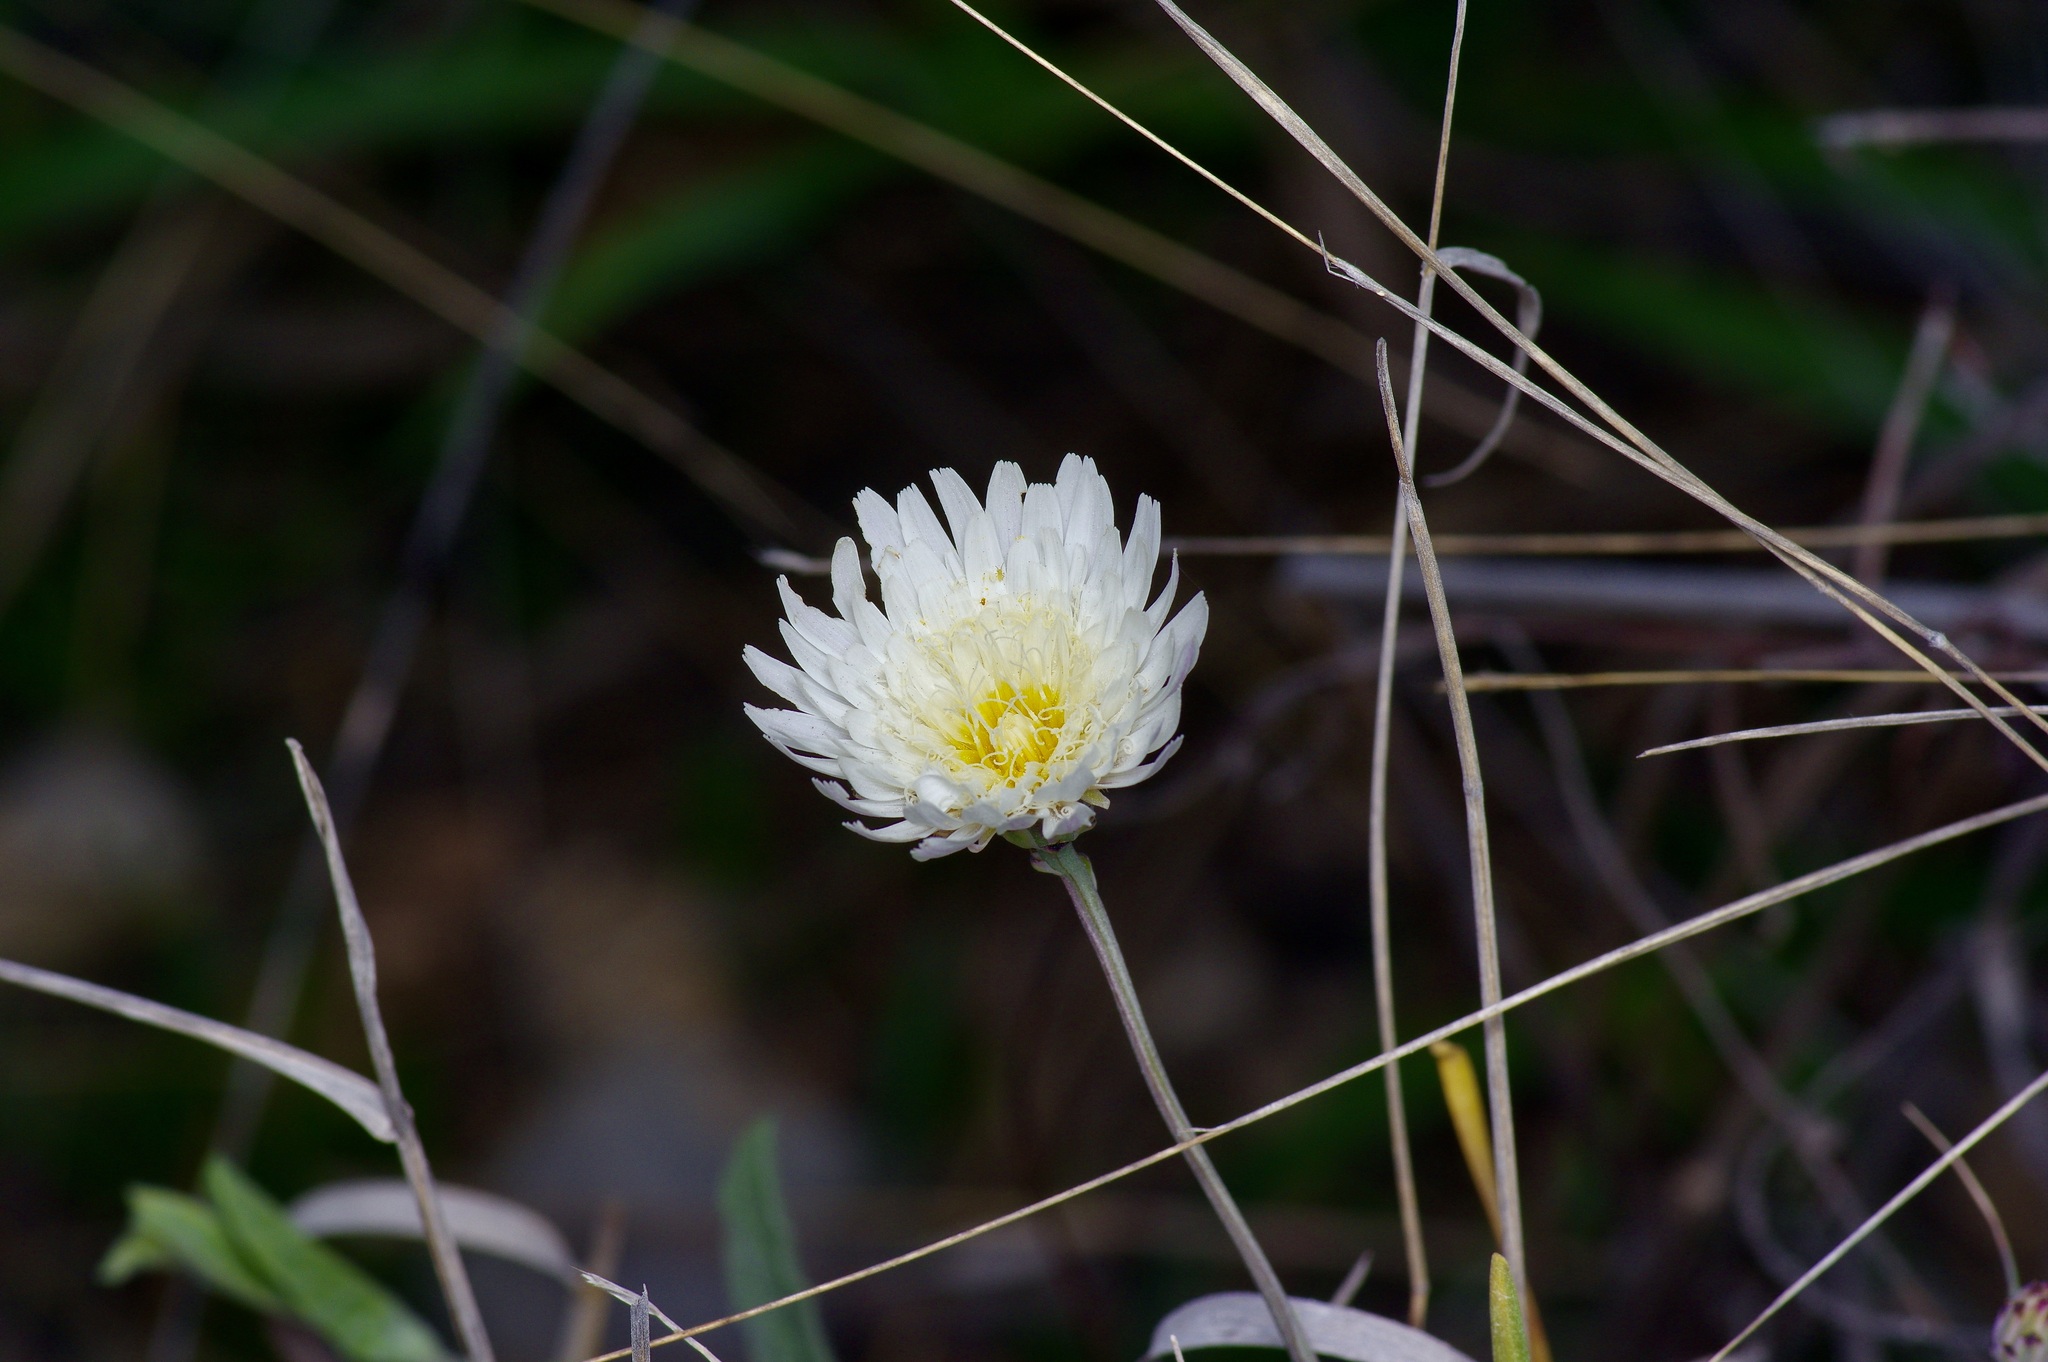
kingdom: Plantae
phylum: Tracheophyta
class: Magnoliopsida
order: Asterales
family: Asteraceae
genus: Pinaropappus
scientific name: Pinaropappus roseus
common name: Rock-lettuce
